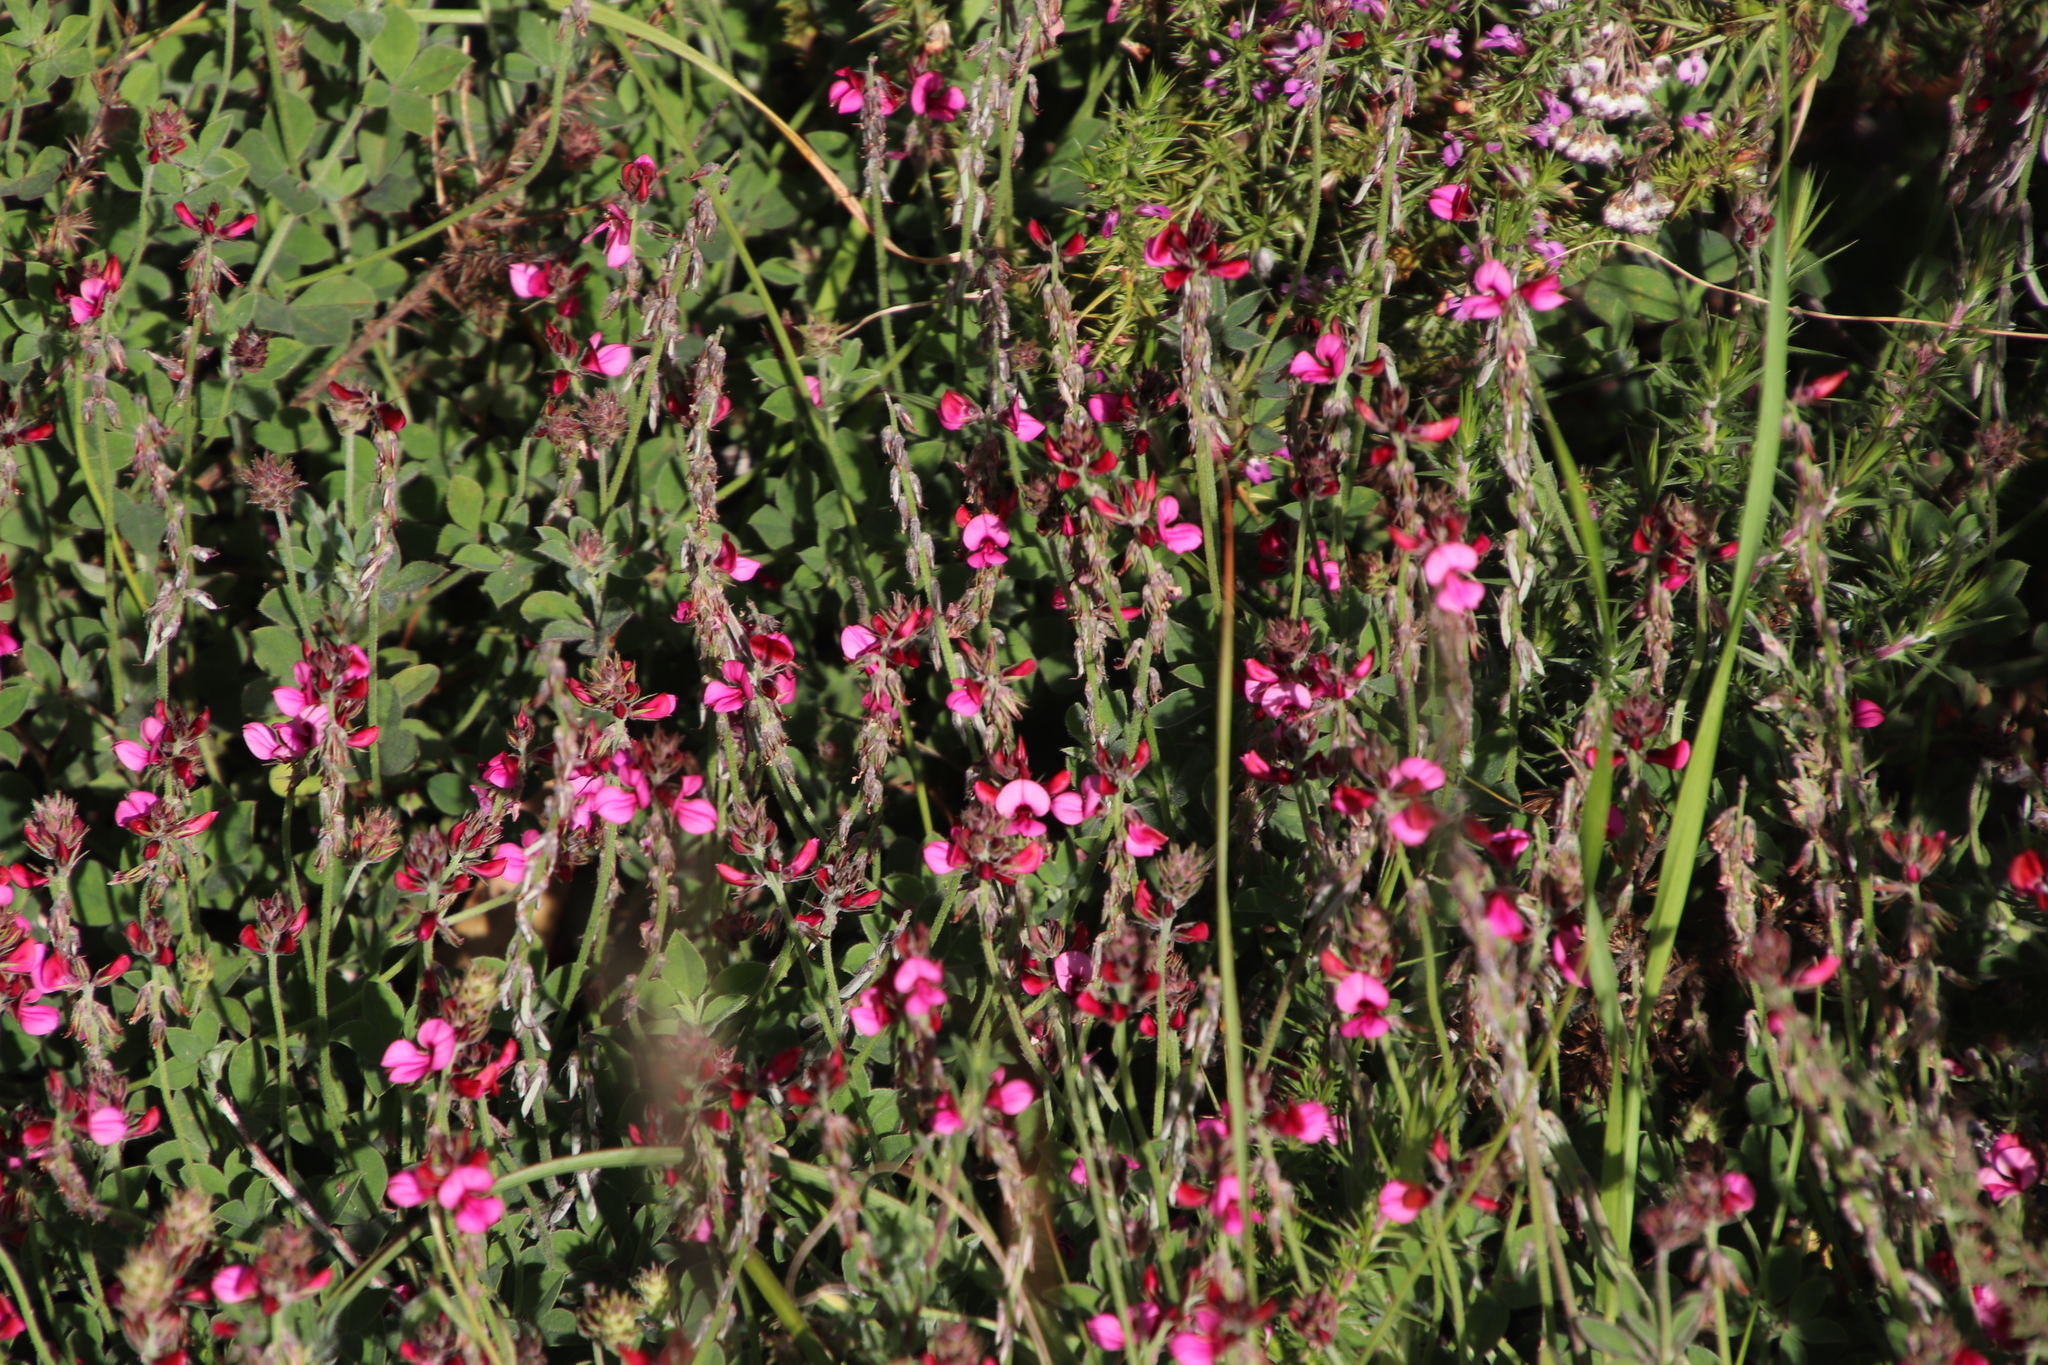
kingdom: Plantae
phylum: Tracheophyta
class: Magnoliopsida
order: Fabales
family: Fabaceae
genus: Indigofera
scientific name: Indigofera incana
